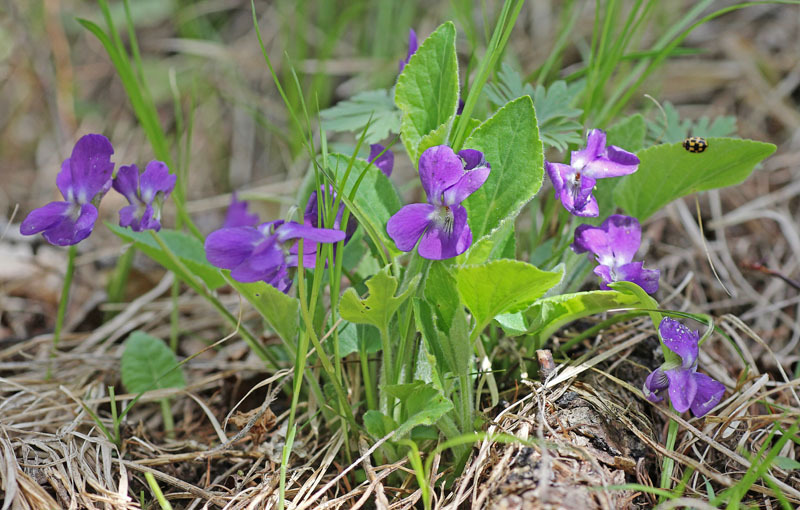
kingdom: Plantae
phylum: Tracheophyta
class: Magnoliopsida
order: Malpighiales
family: Violaceae
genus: Viola
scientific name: Viola hirta
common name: Hairy violet
